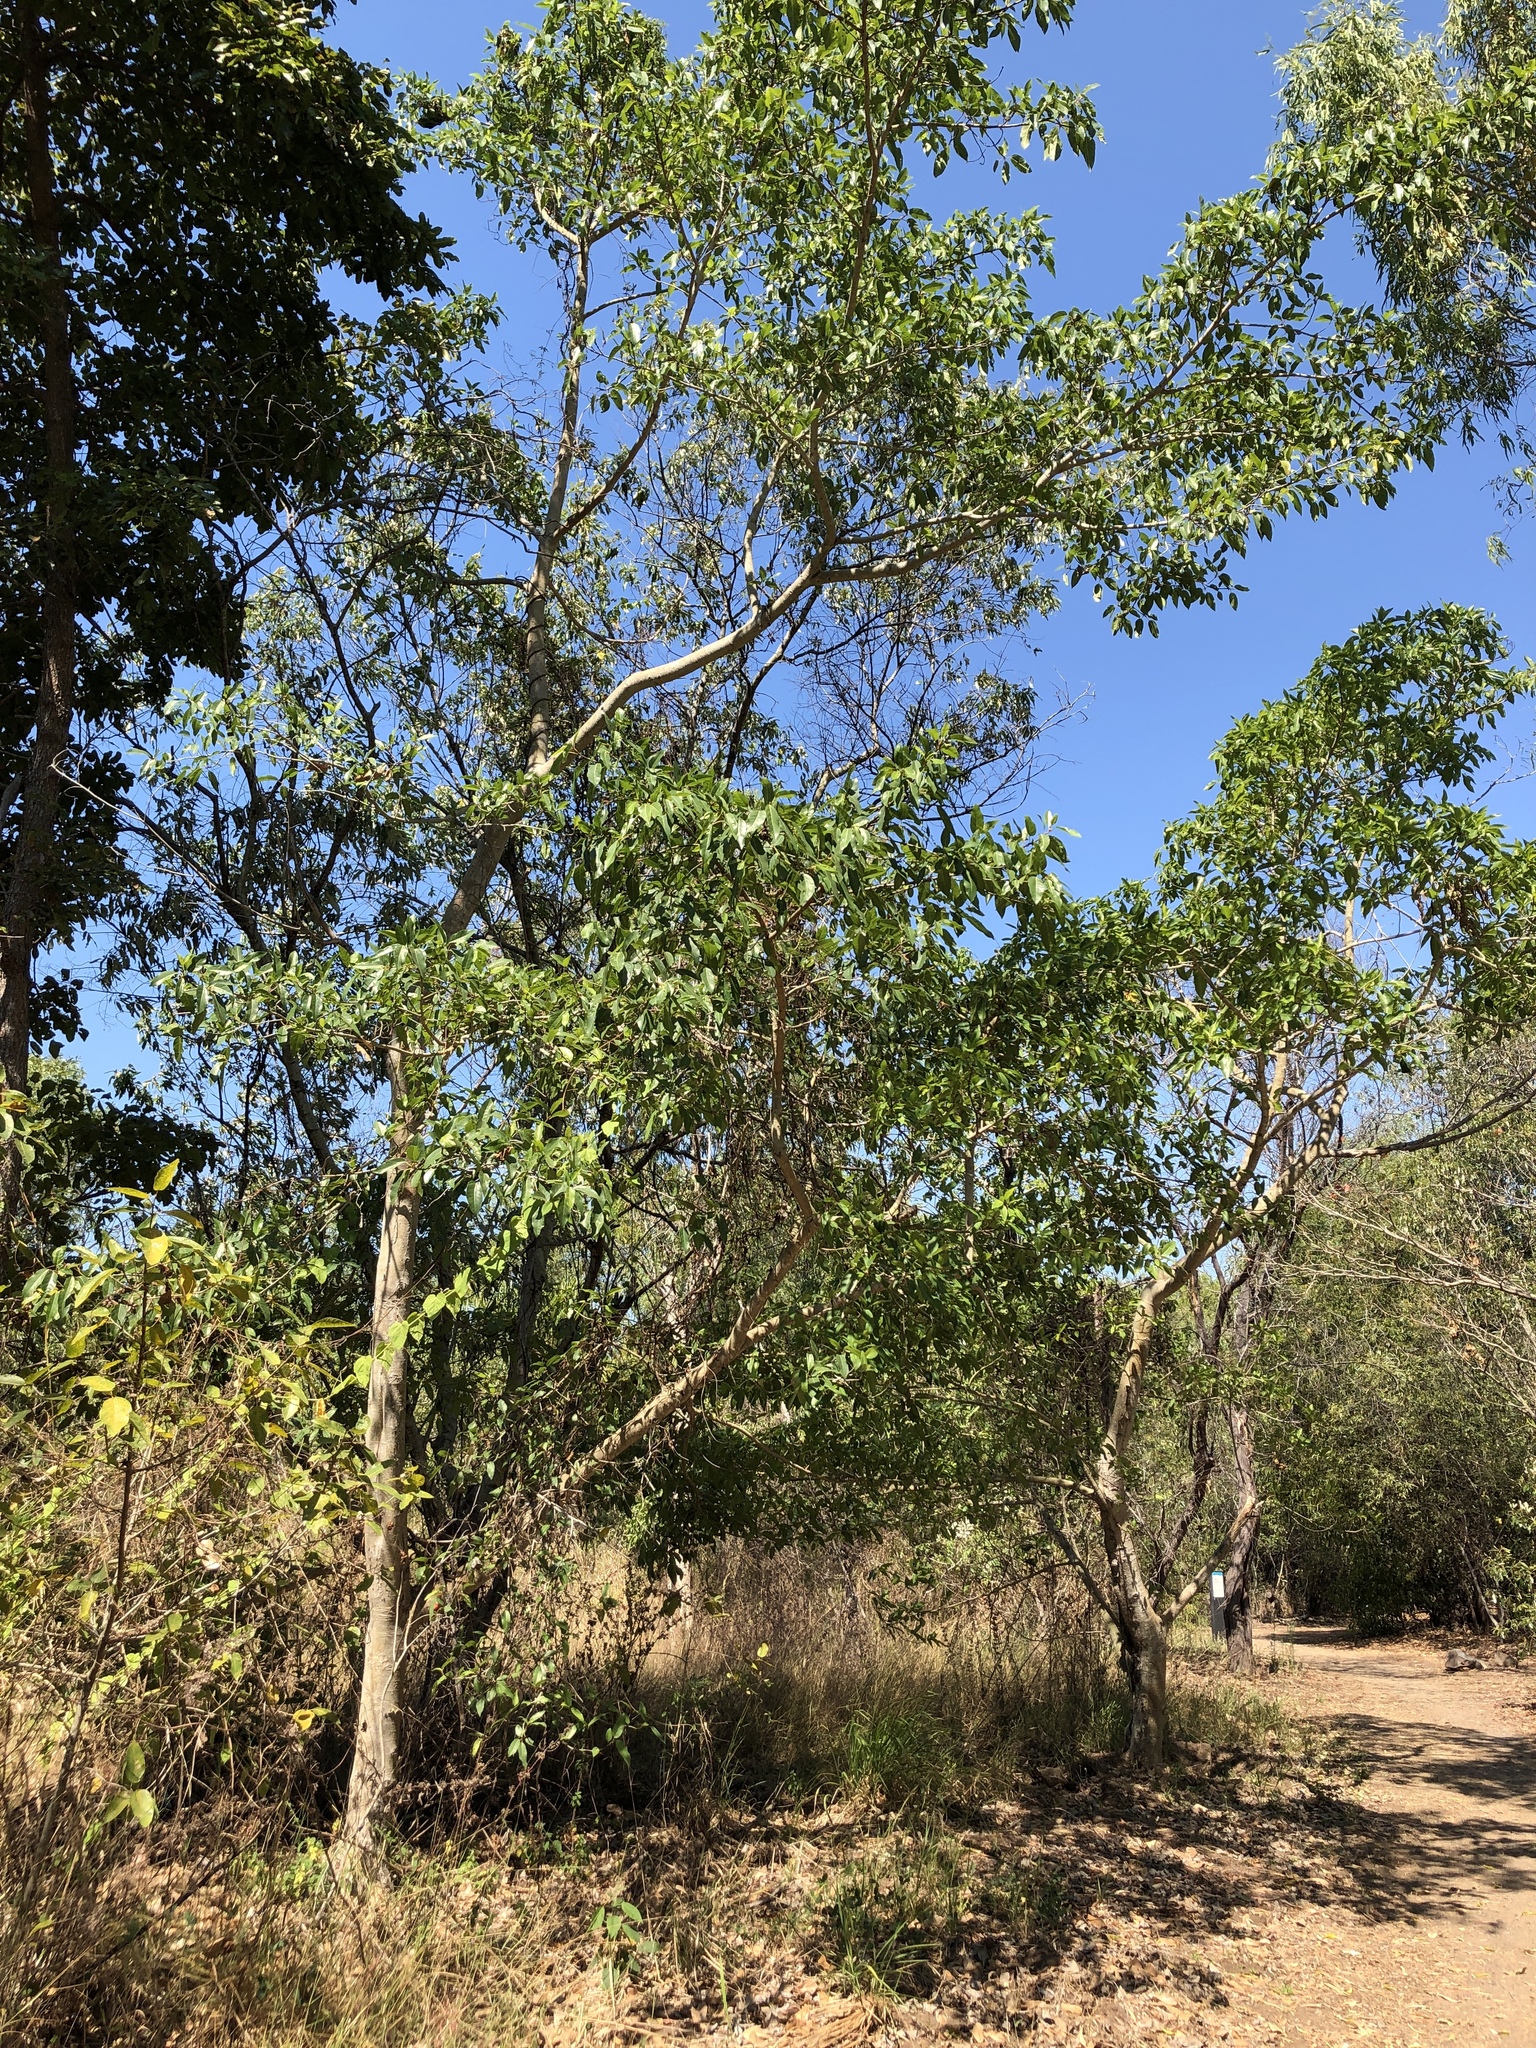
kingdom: Plantae
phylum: Tracheophyta
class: Magnoliopsida
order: Rosales
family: Moraceae
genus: Ficus
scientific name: Ficus racemosa
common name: Cluster fig
